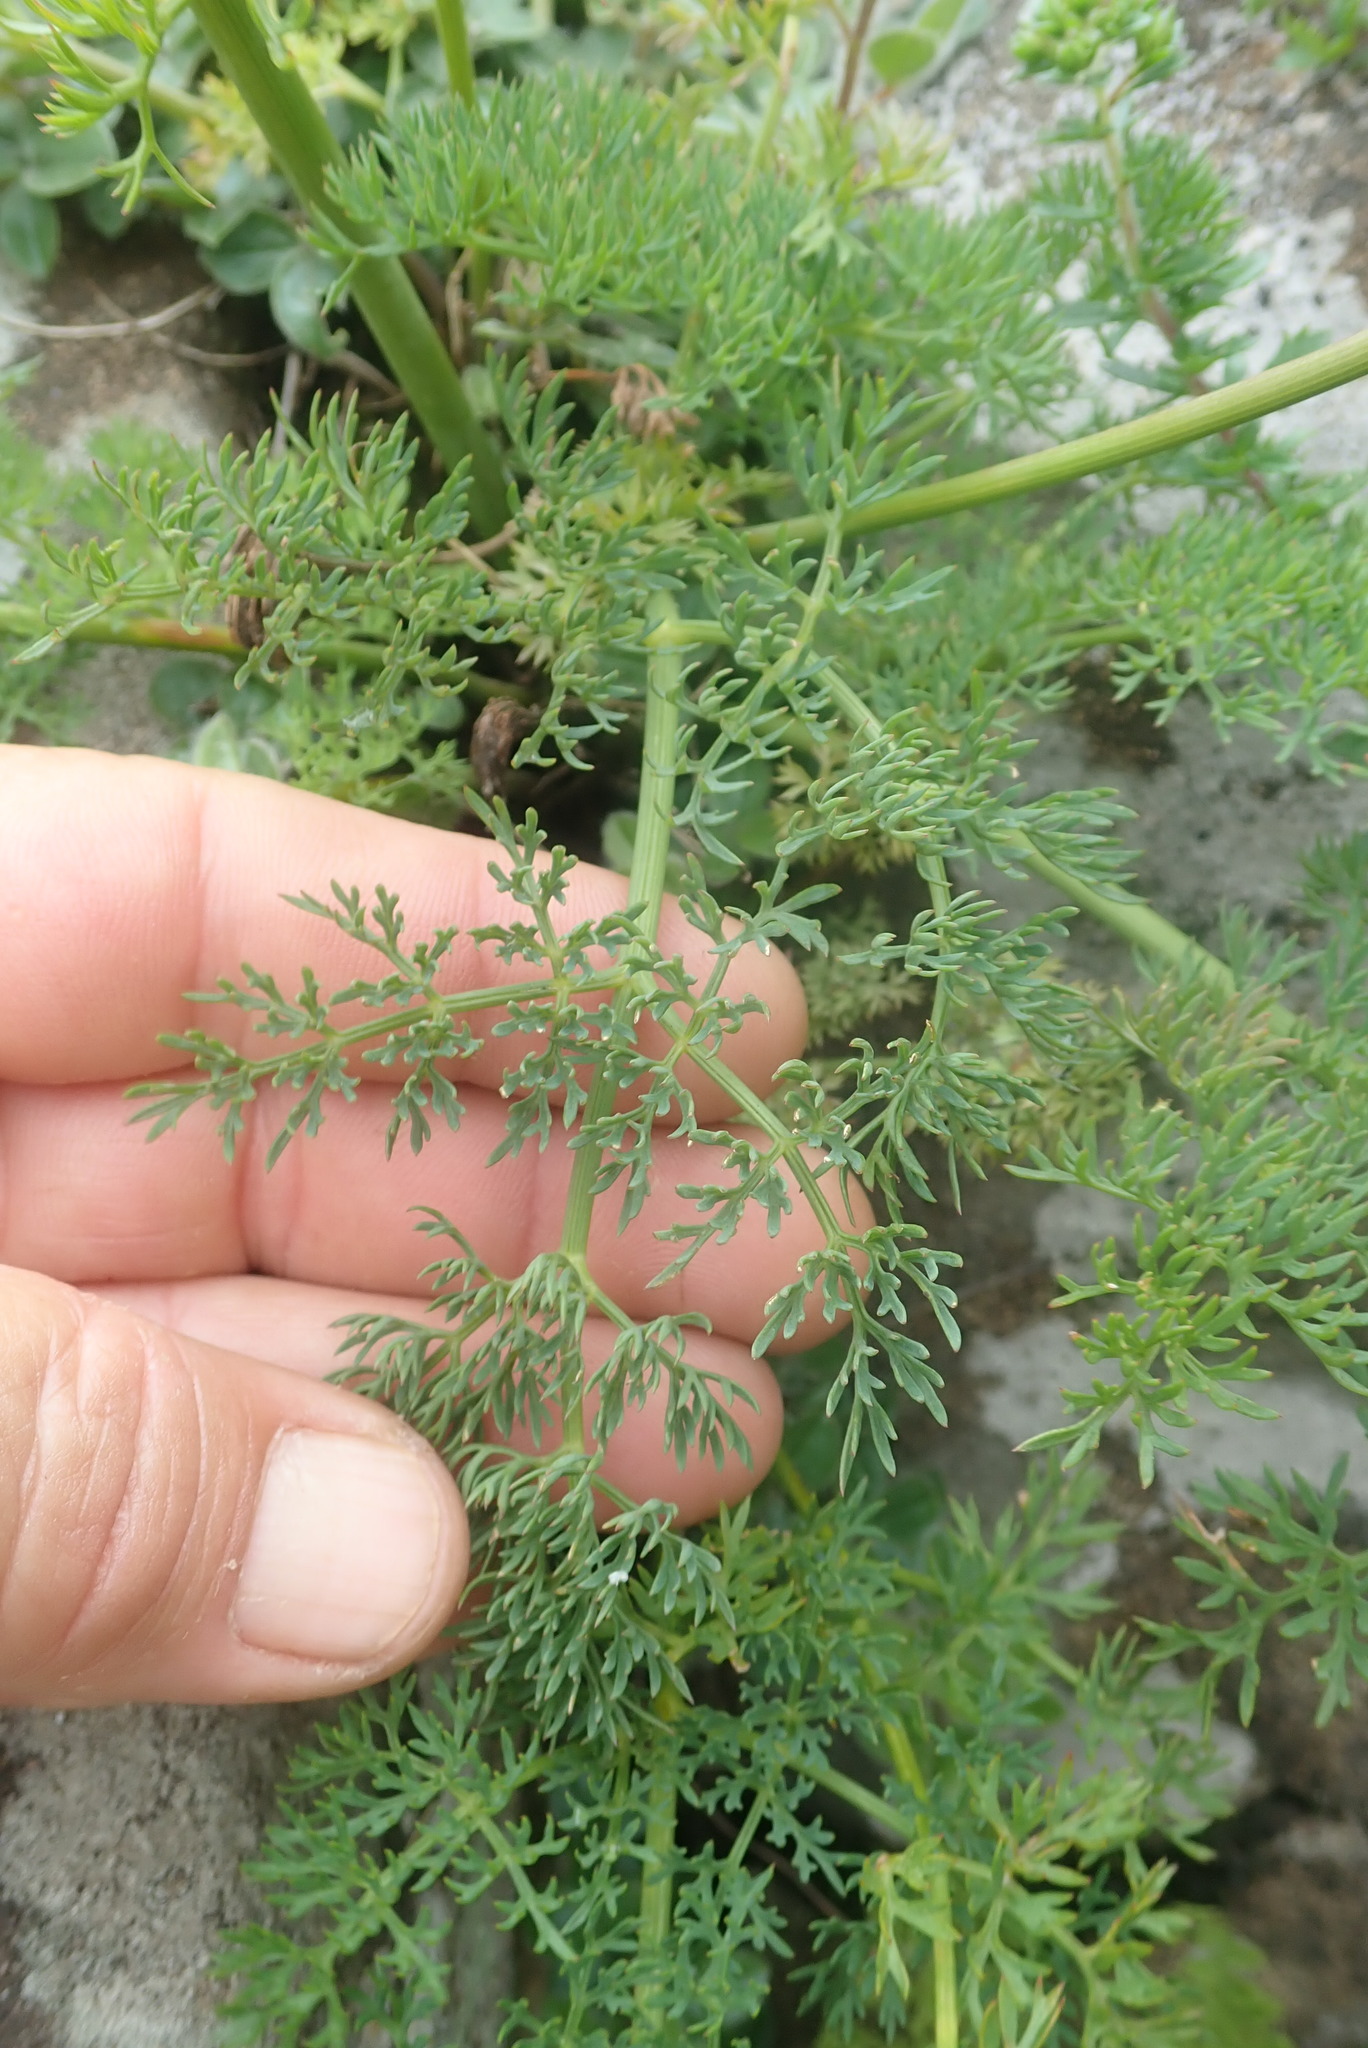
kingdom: Plantae
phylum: Tracheophyta
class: Magnoliopsida
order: Apiales
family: Apiaceae
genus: Afrosciadium
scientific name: Afrosciadium magalismontanum
